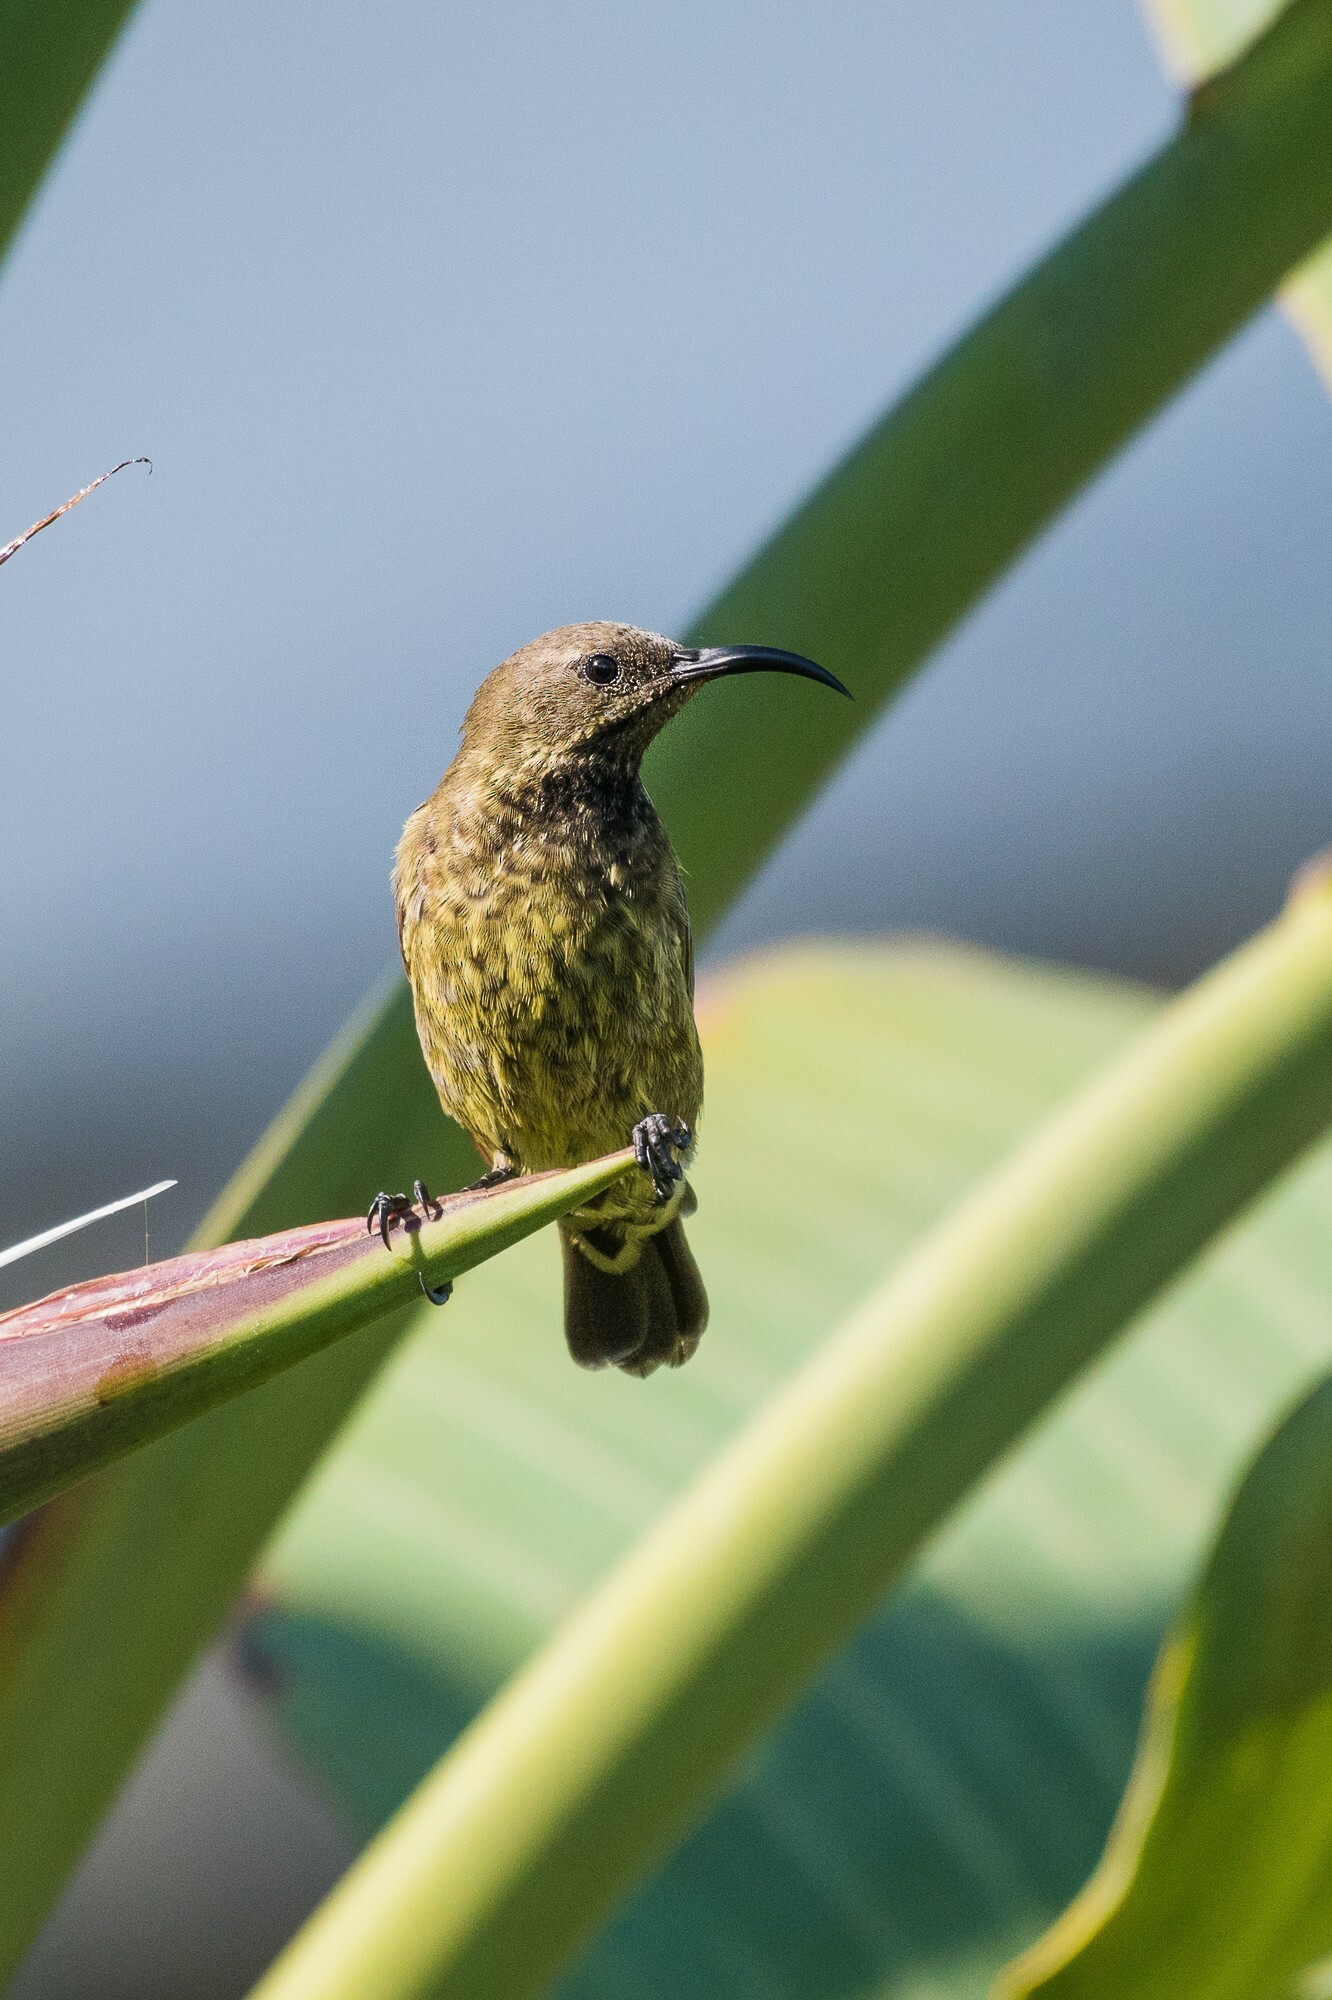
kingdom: Animalia
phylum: Chordata
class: Aves
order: Passeriformes
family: Nectariniidae
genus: Chalcomitra
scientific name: Chalcomitra senegalensis
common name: Scarlet-chested sunbird
